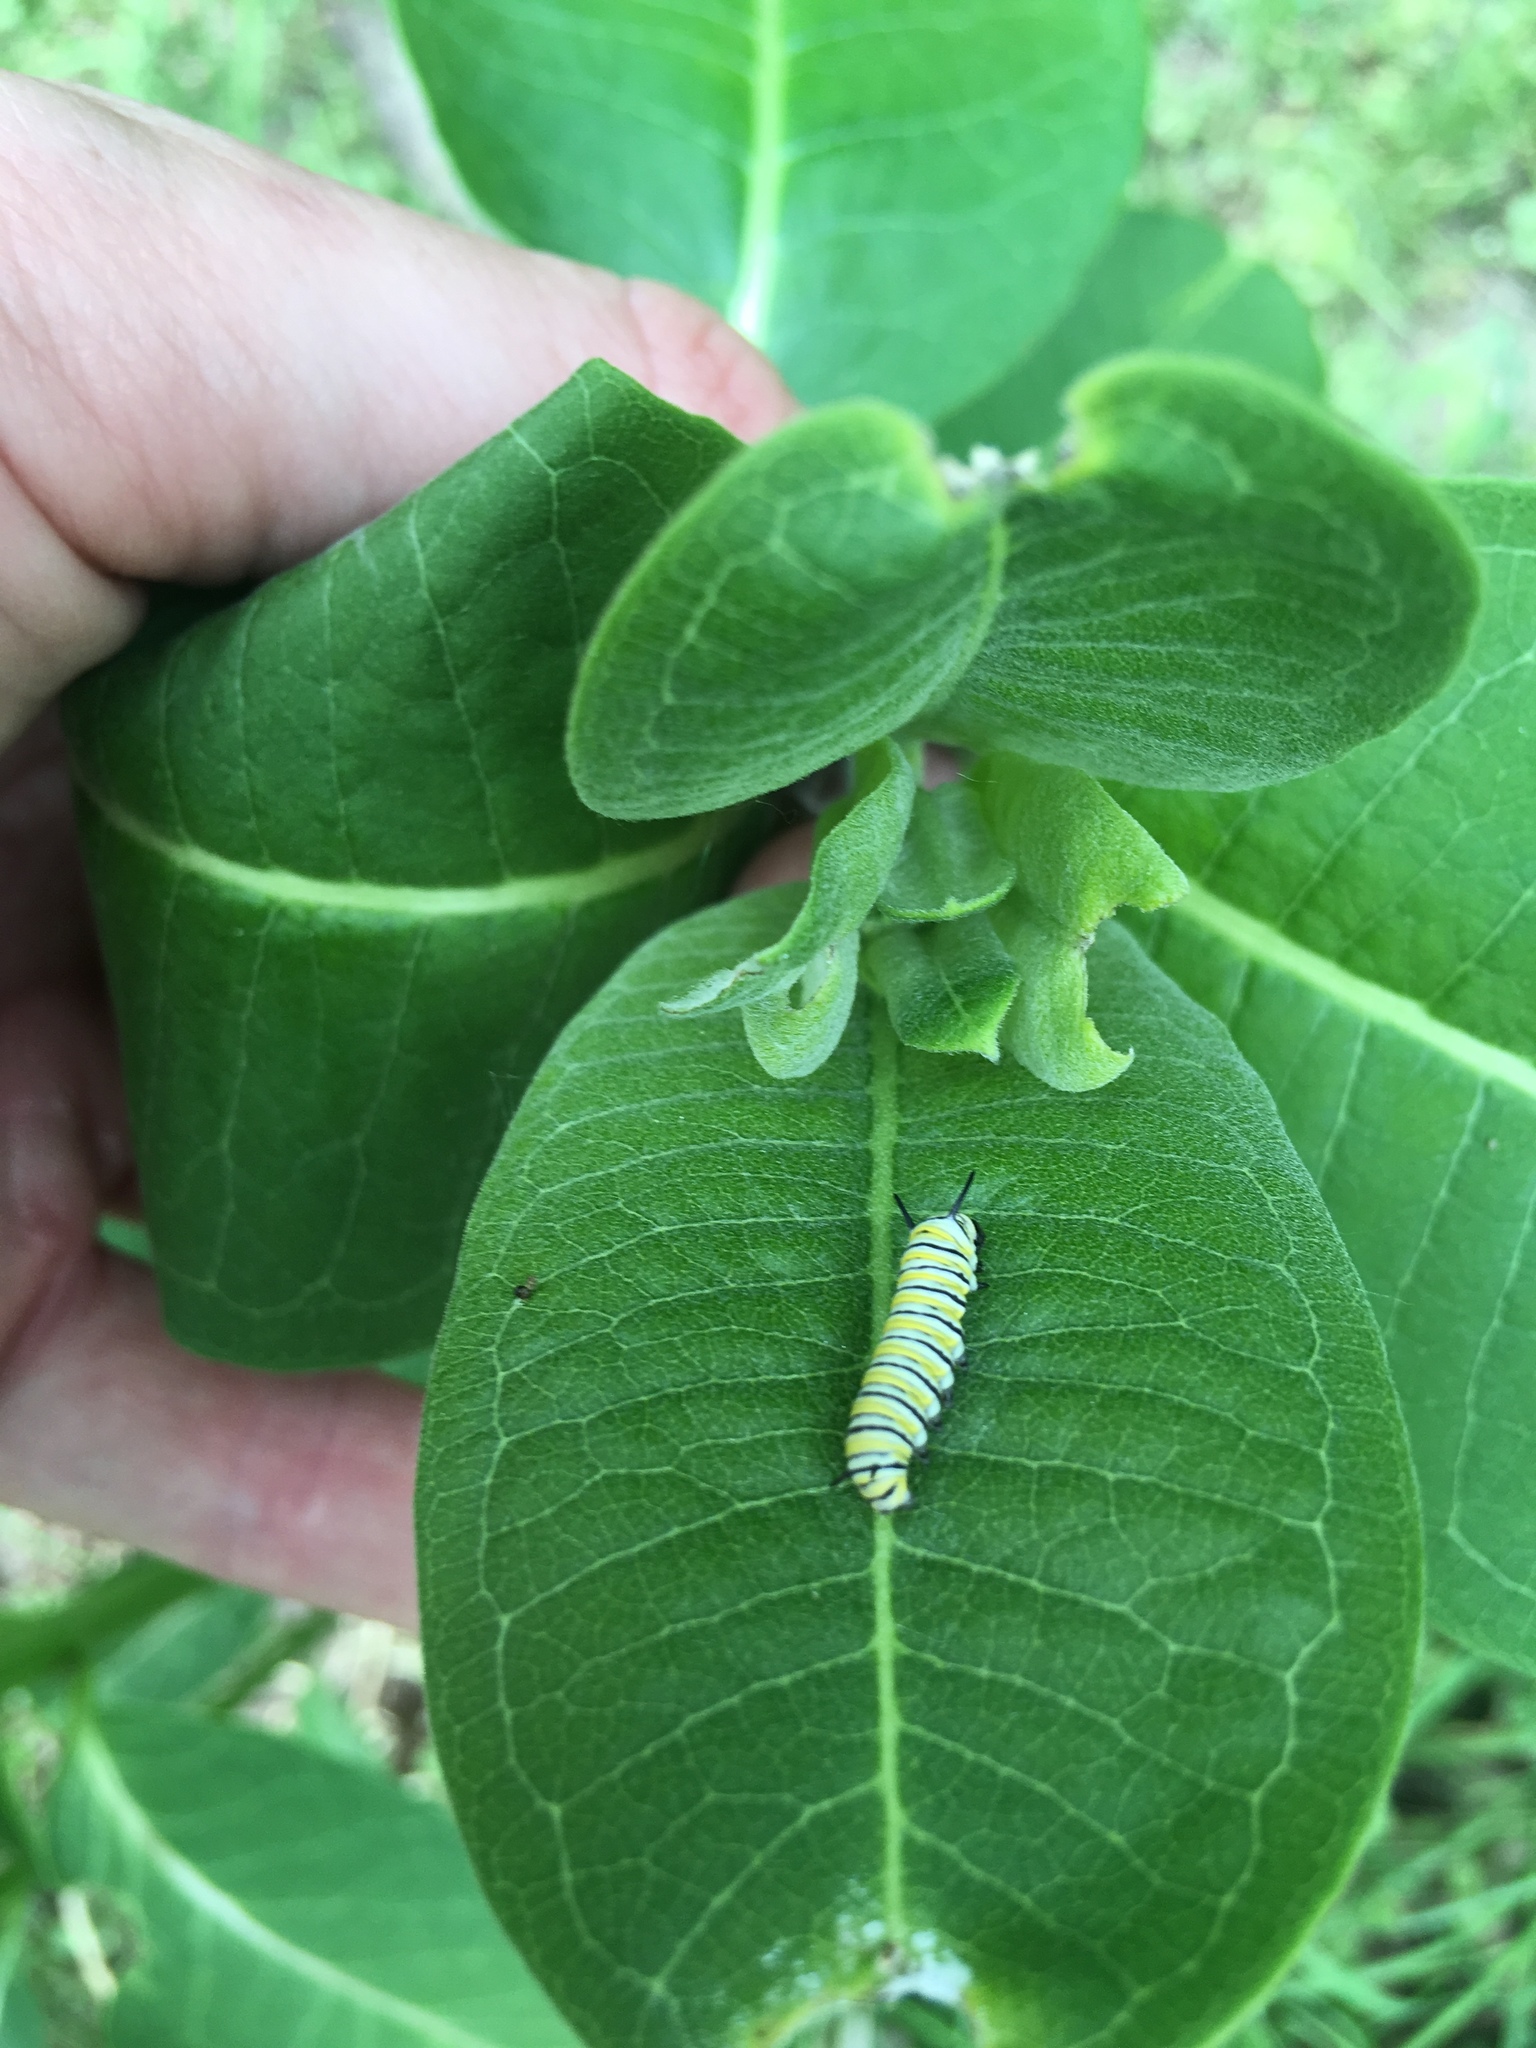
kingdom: Animalia
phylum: Arthropoda
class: Insecta
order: Lepidoptera
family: Nymphalidae
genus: Danaus
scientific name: Danaus plexippus
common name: Monarch
